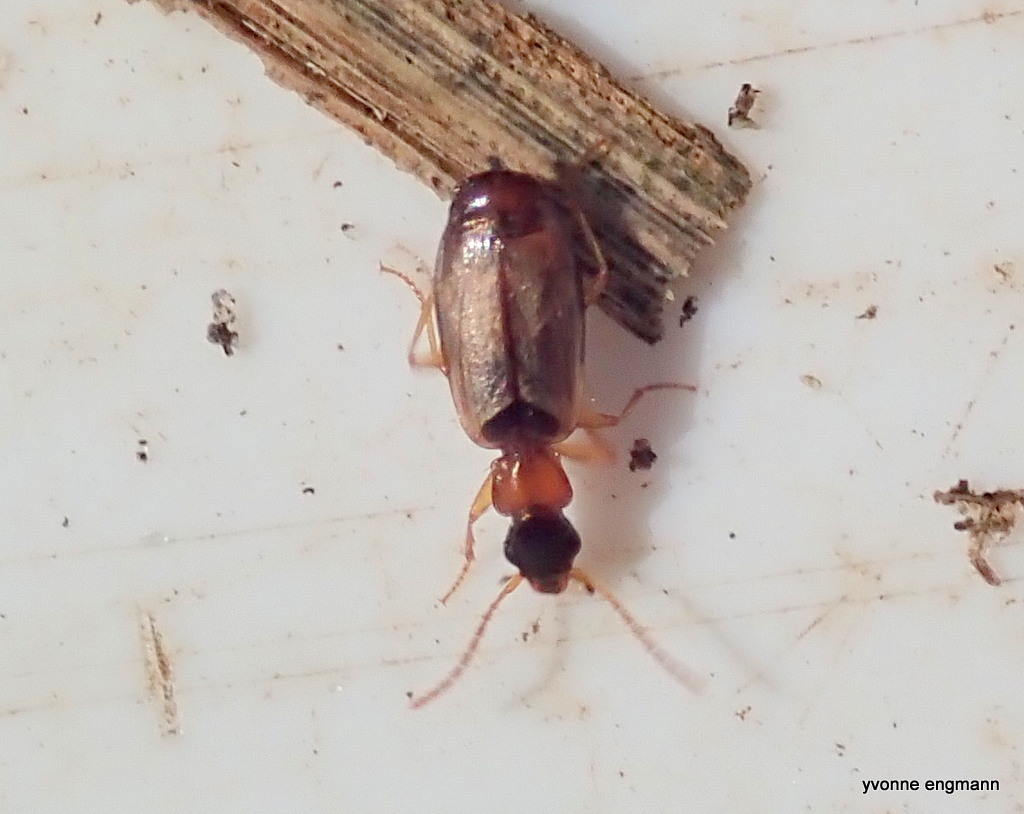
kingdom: Animalia
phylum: Arthropoda
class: Insecta
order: Coleoptera
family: Carabidae
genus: Philorhizus
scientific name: Philorhizus melanocephalus
